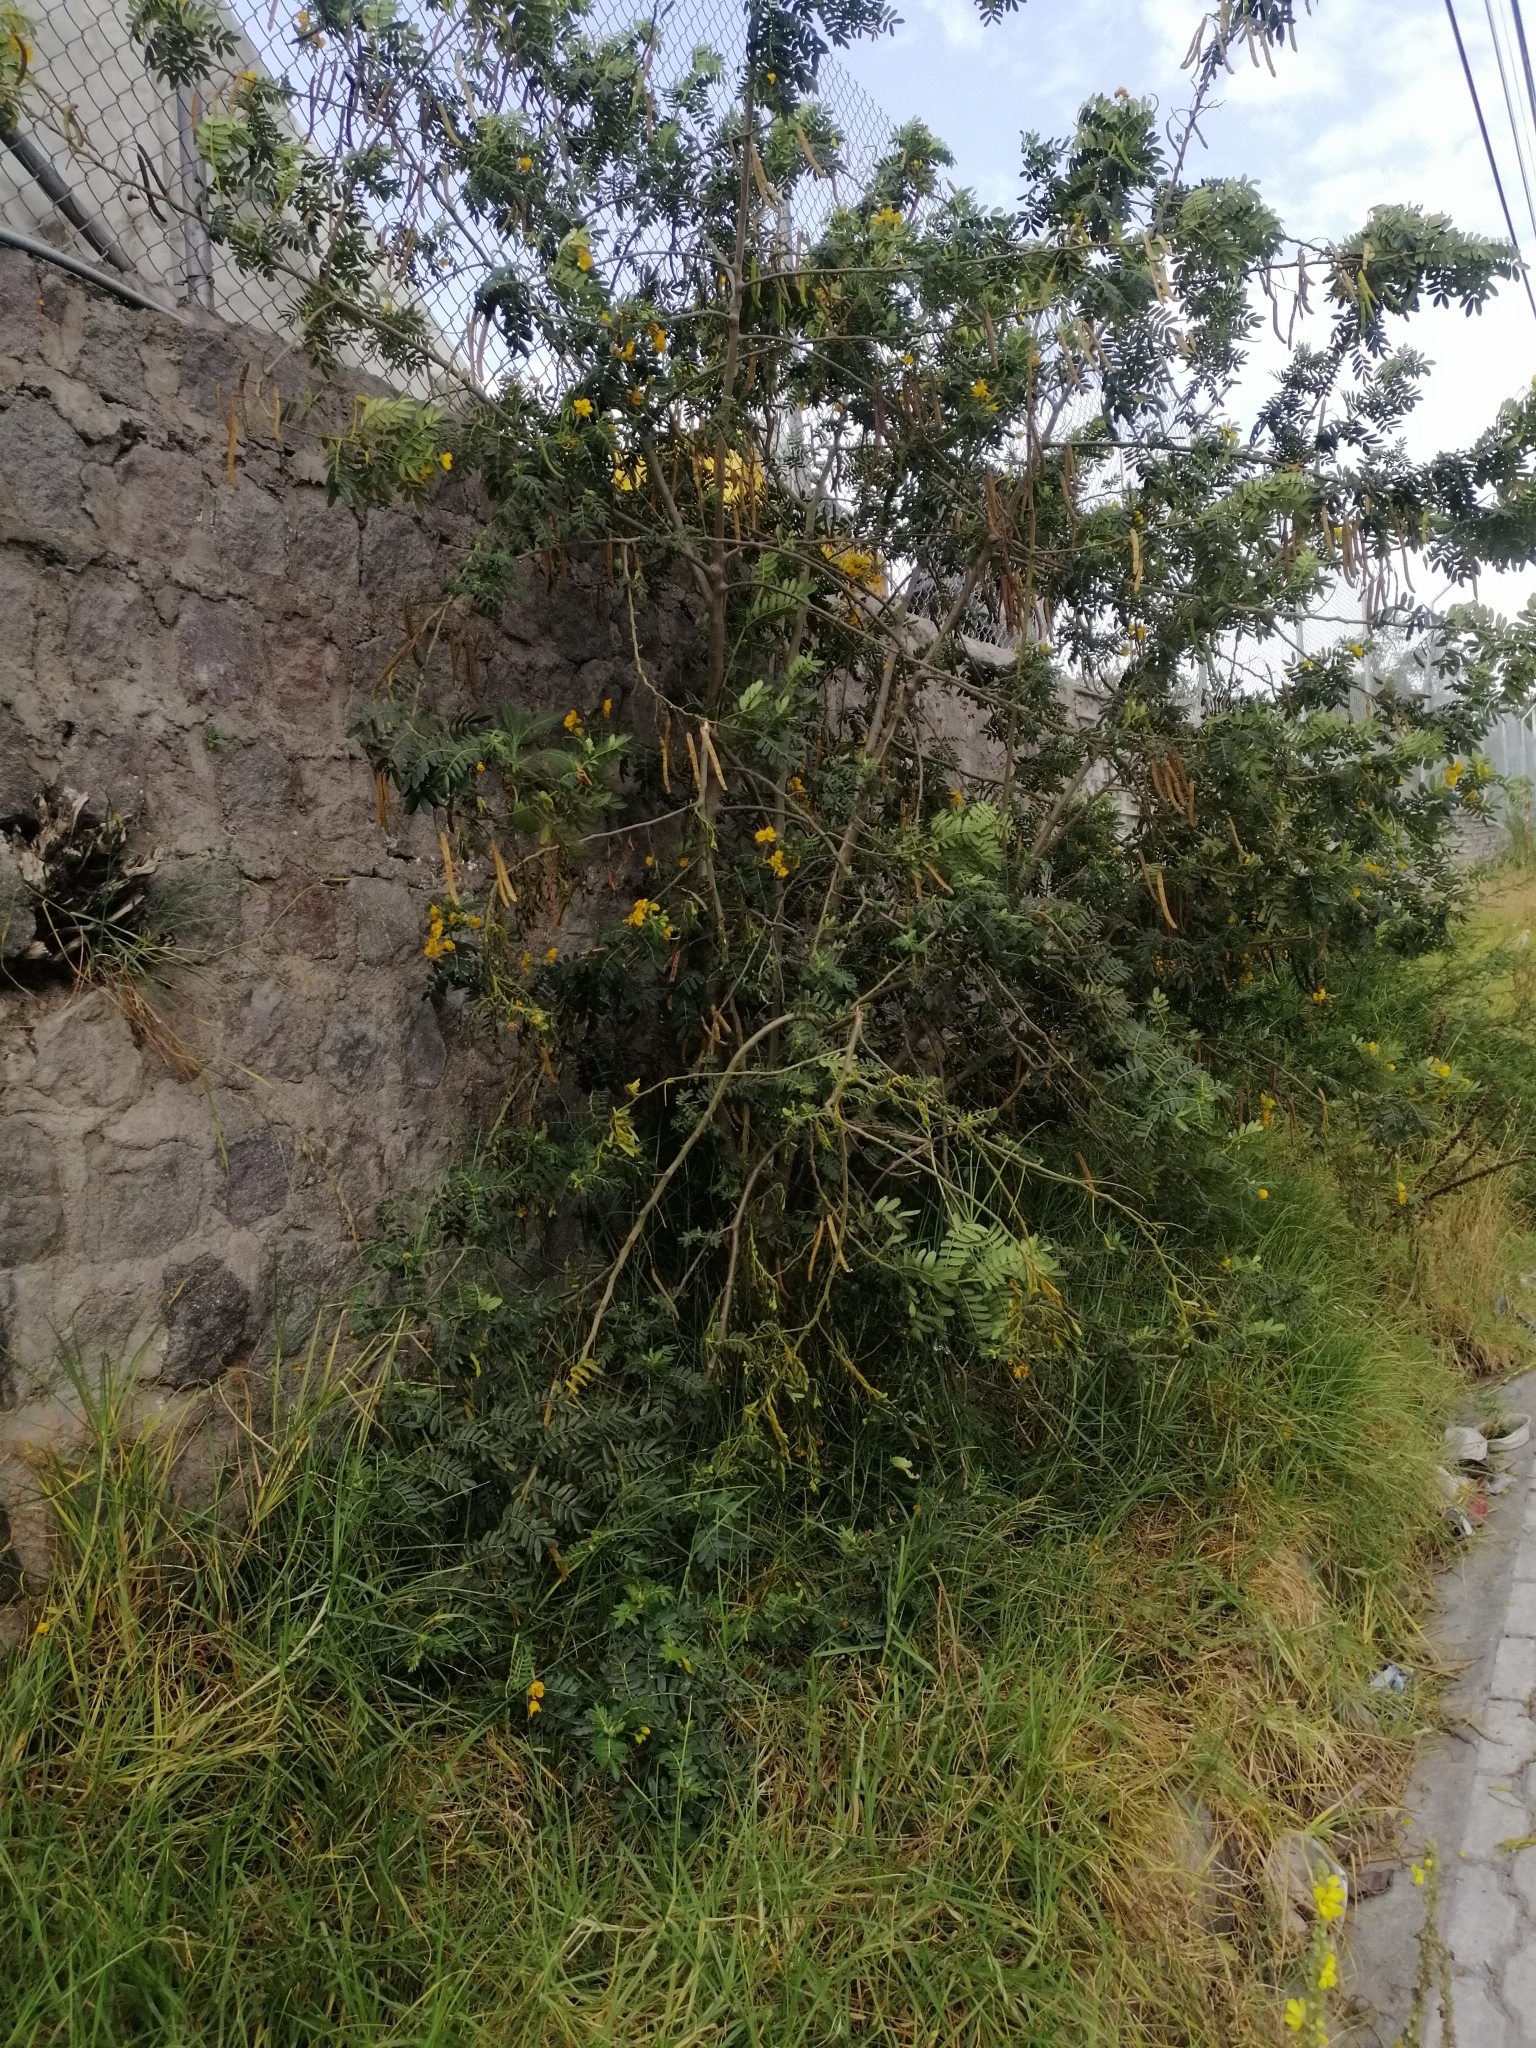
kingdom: Plantae
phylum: Tracheophyta
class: Magnoliopsida
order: Fabales
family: Fabaceae
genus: Senna
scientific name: Senna multiglandulosa
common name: Glandular senna
